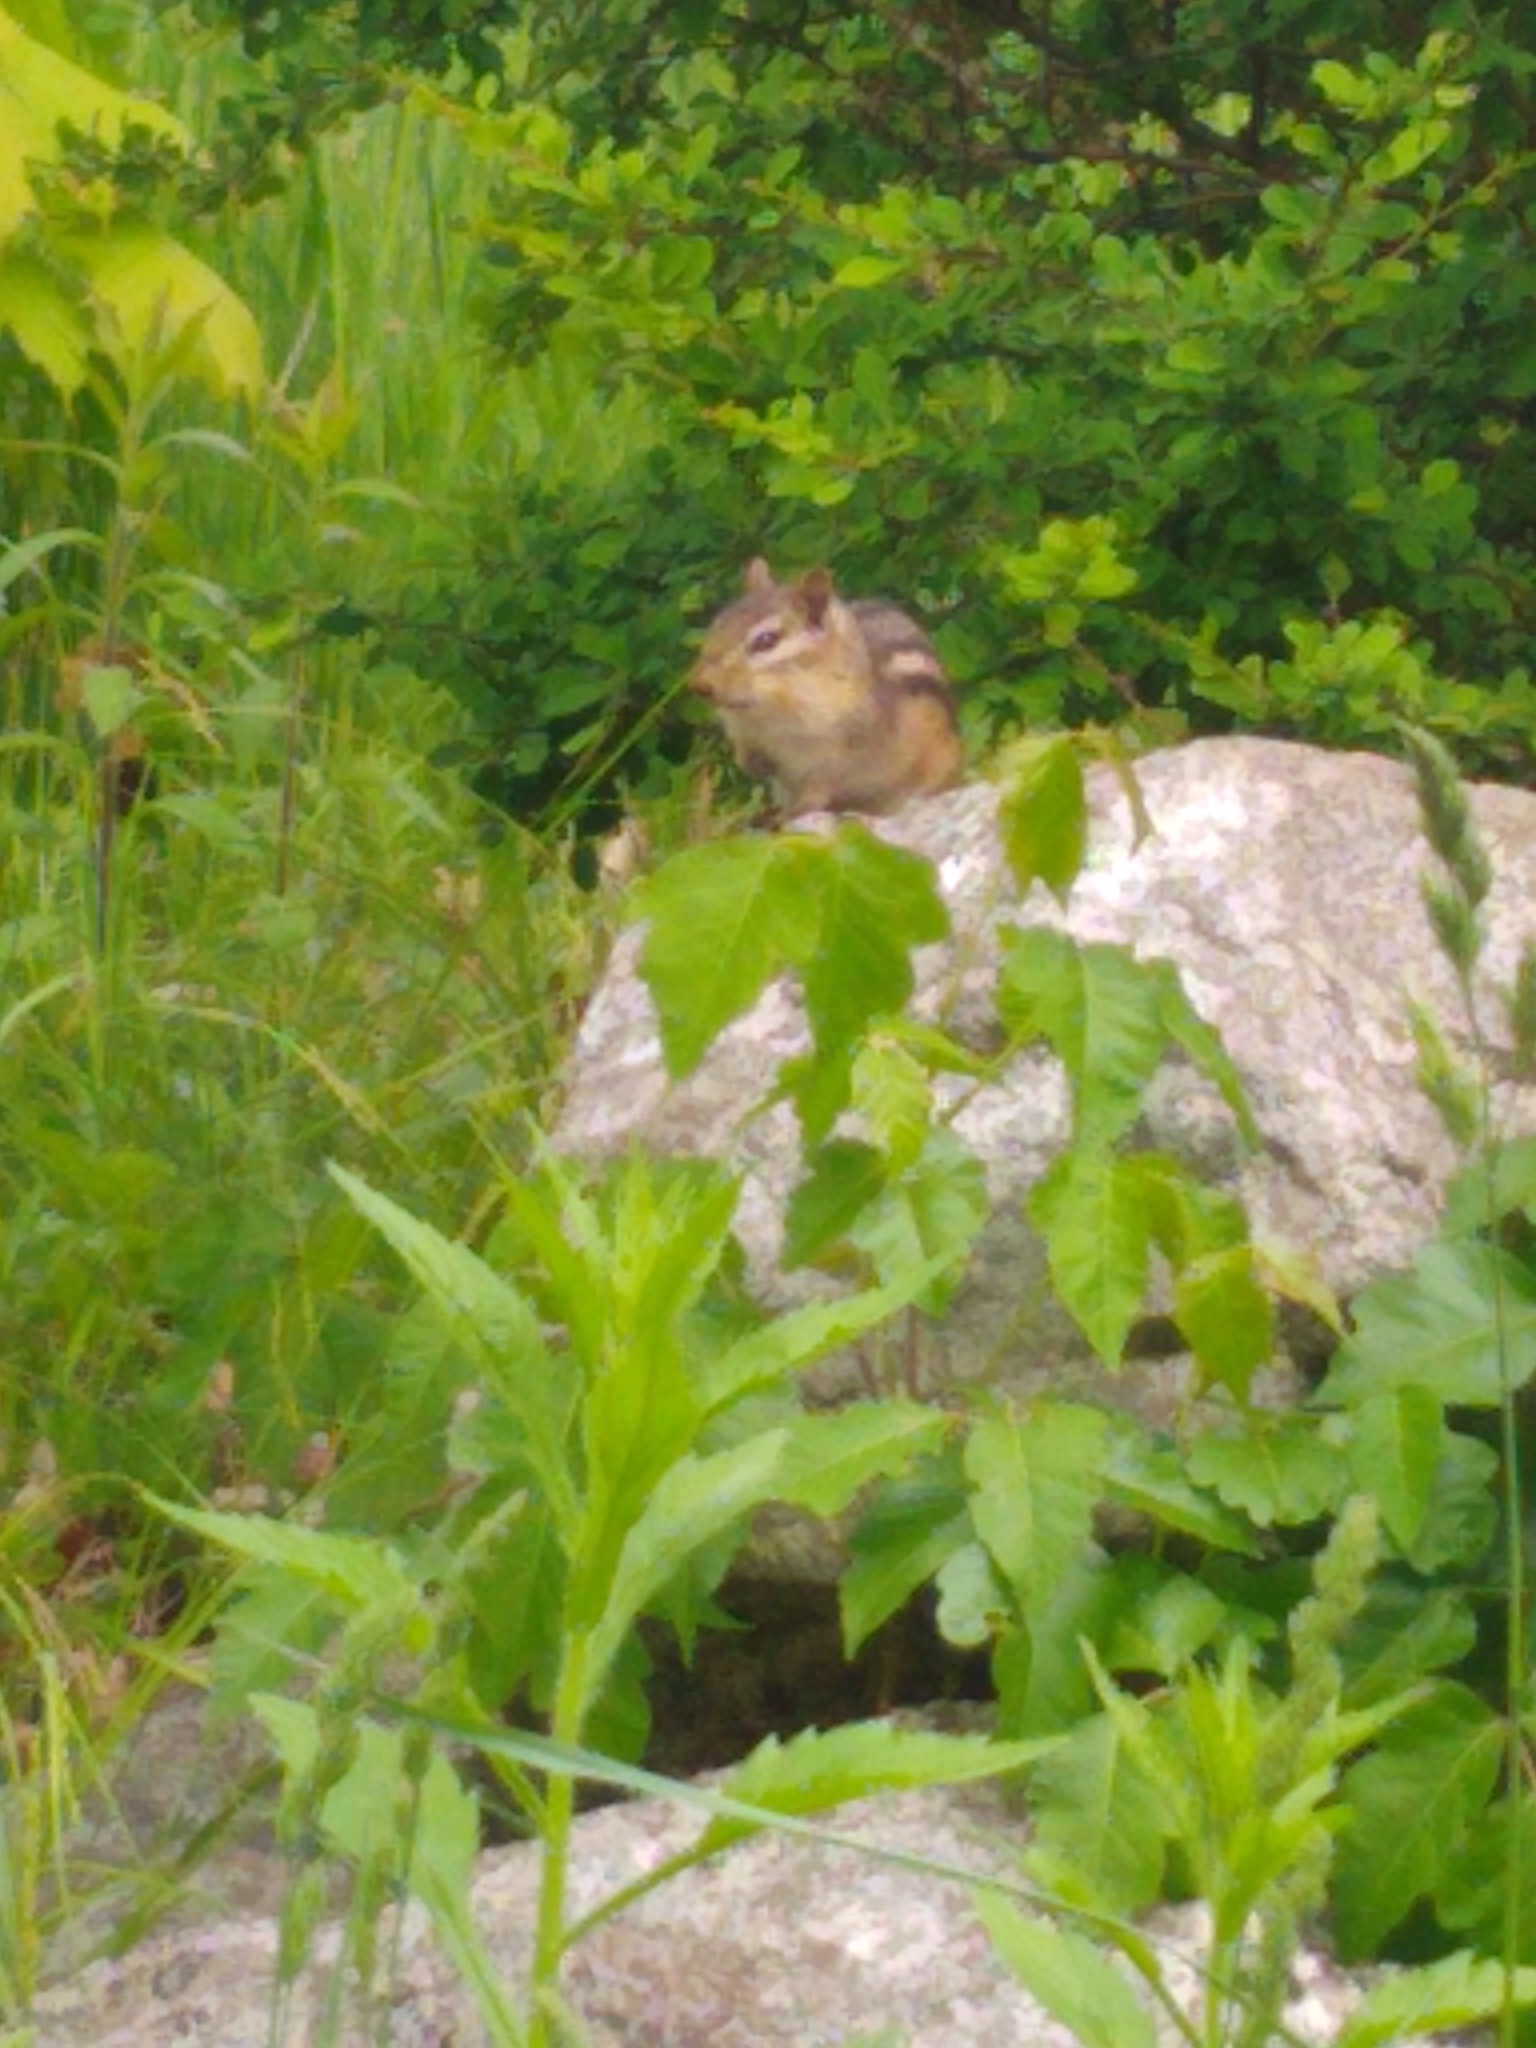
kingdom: Animalia
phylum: Chordata
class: Mammalia
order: Rodentia
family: Sciuridae
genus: Tamias
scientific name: Tamias striatus
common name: Eastern chipmunk
